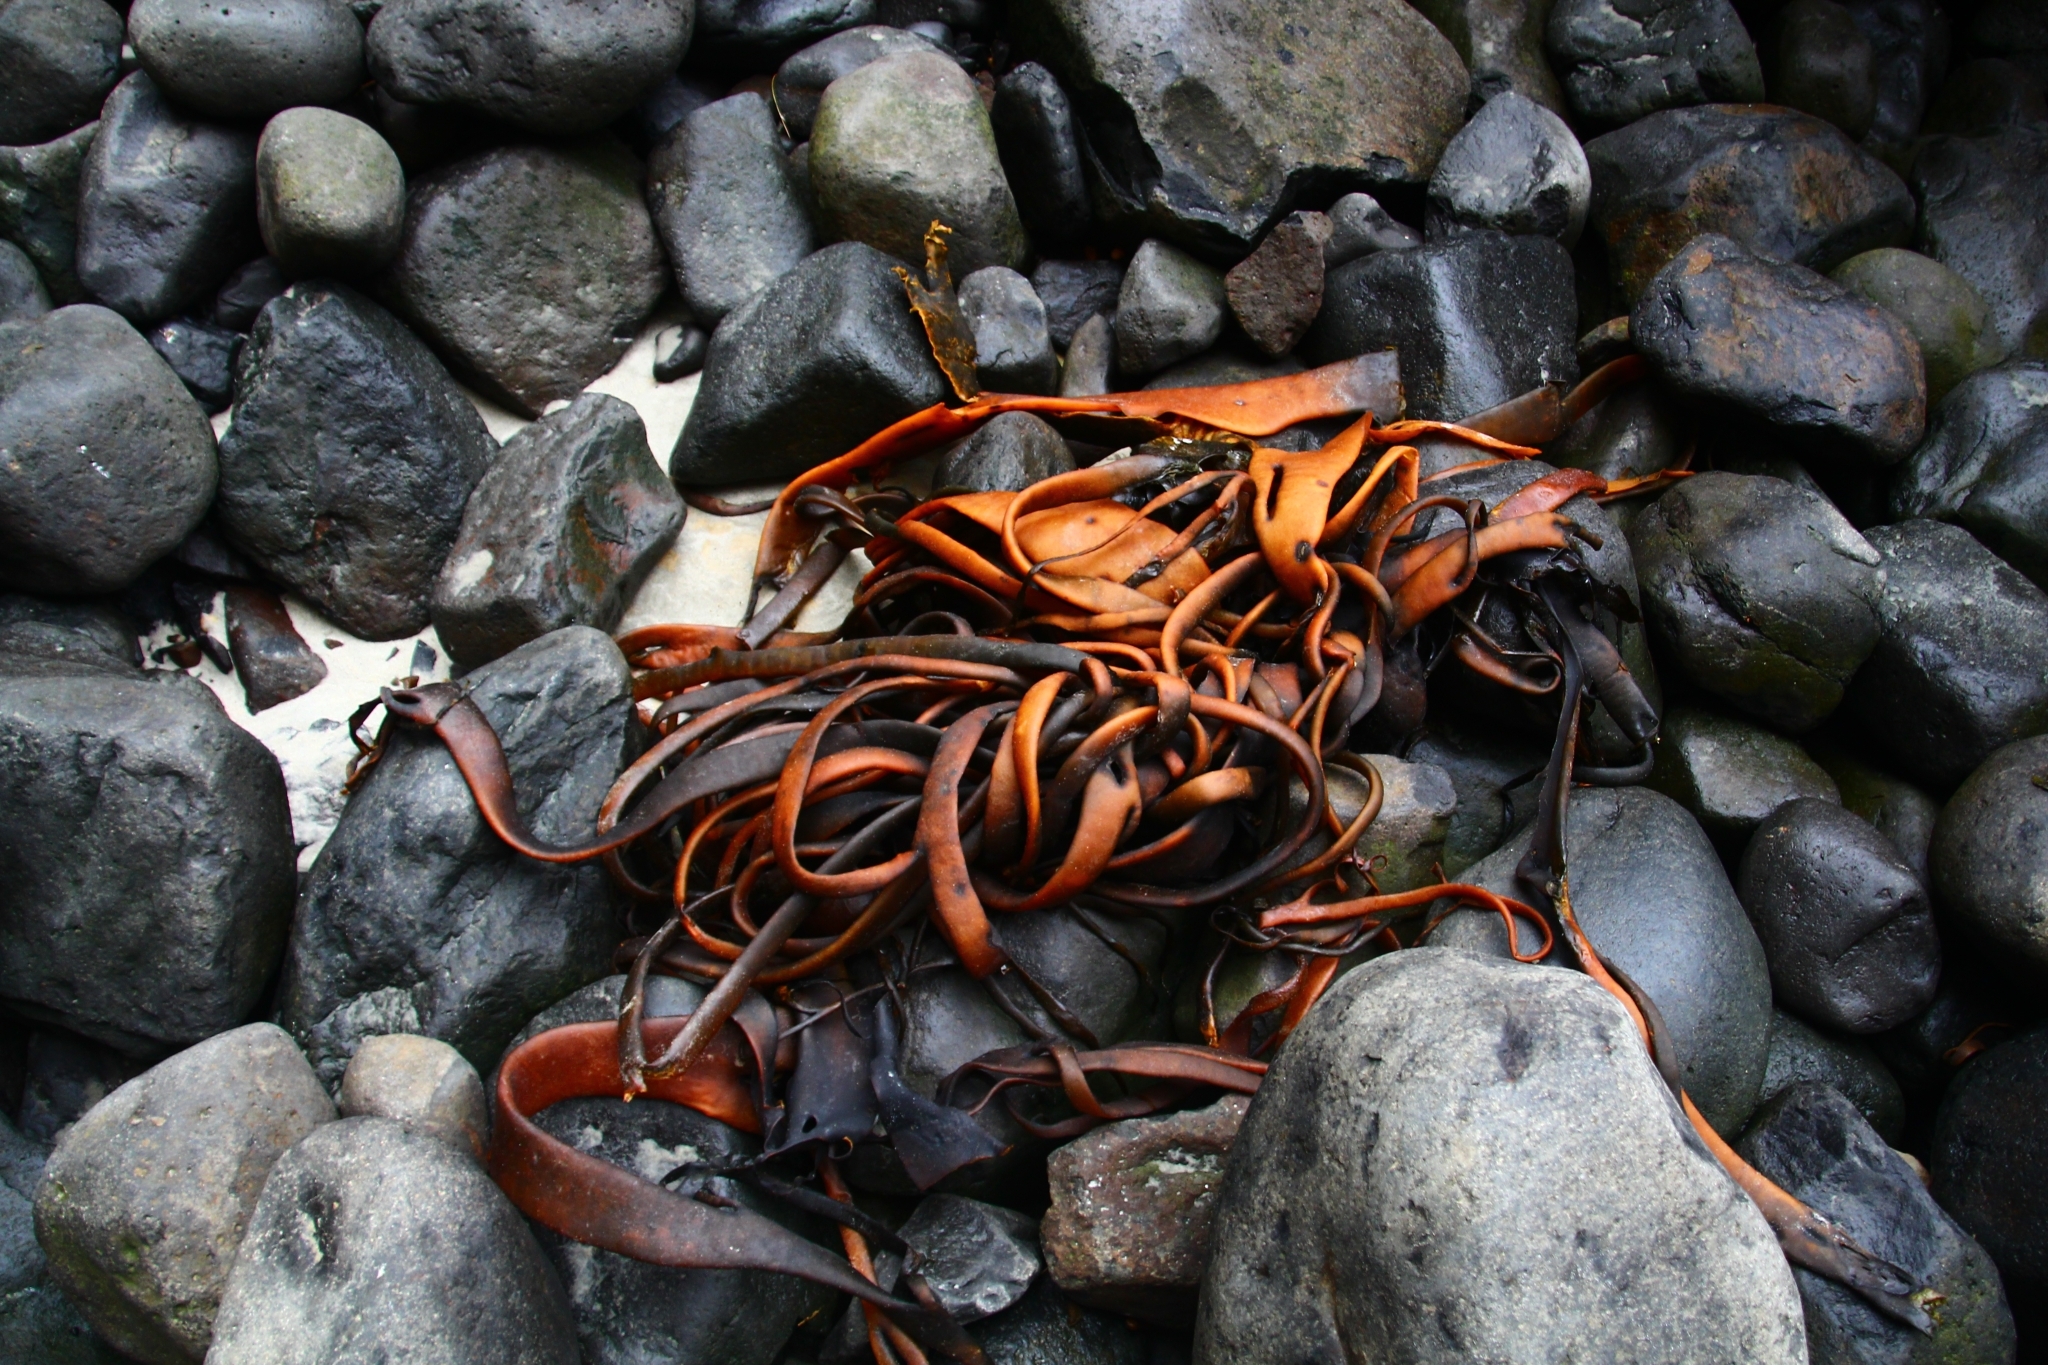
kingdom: Chromista
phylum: Ochrophyta
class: Phaeophyceae
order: Fucales
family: Durvillaeaceae
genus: Durvillaea
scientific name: Durvillaea antarctica
